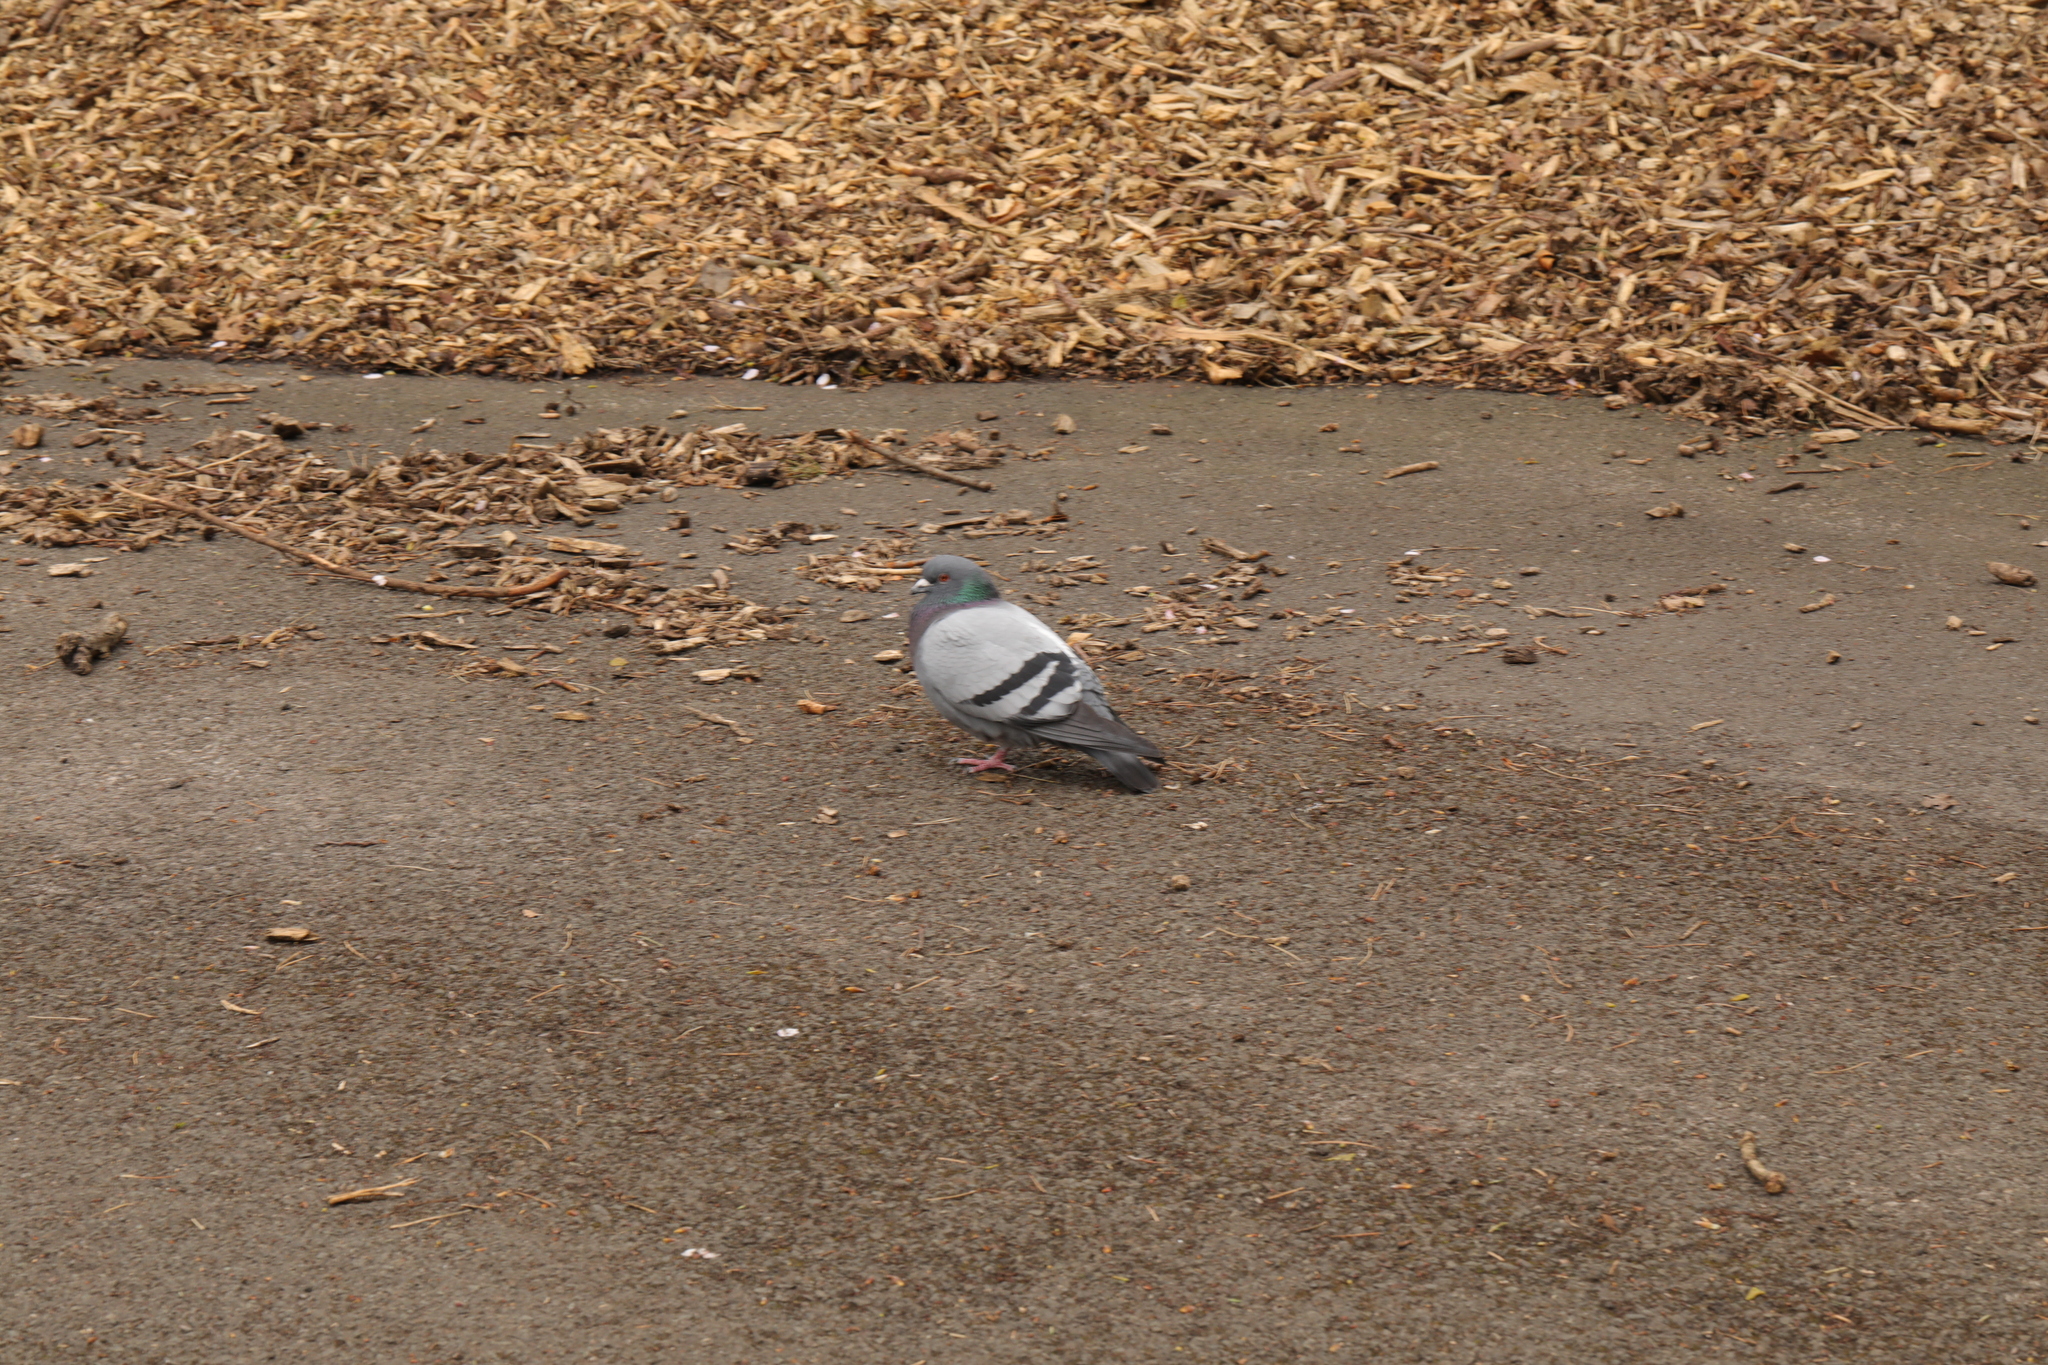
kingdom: Animalia
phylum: Chordata
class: Aves
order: Columbiformes
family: Columbidae
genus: Columba
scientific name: Columba livia
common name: Rock pigeon
